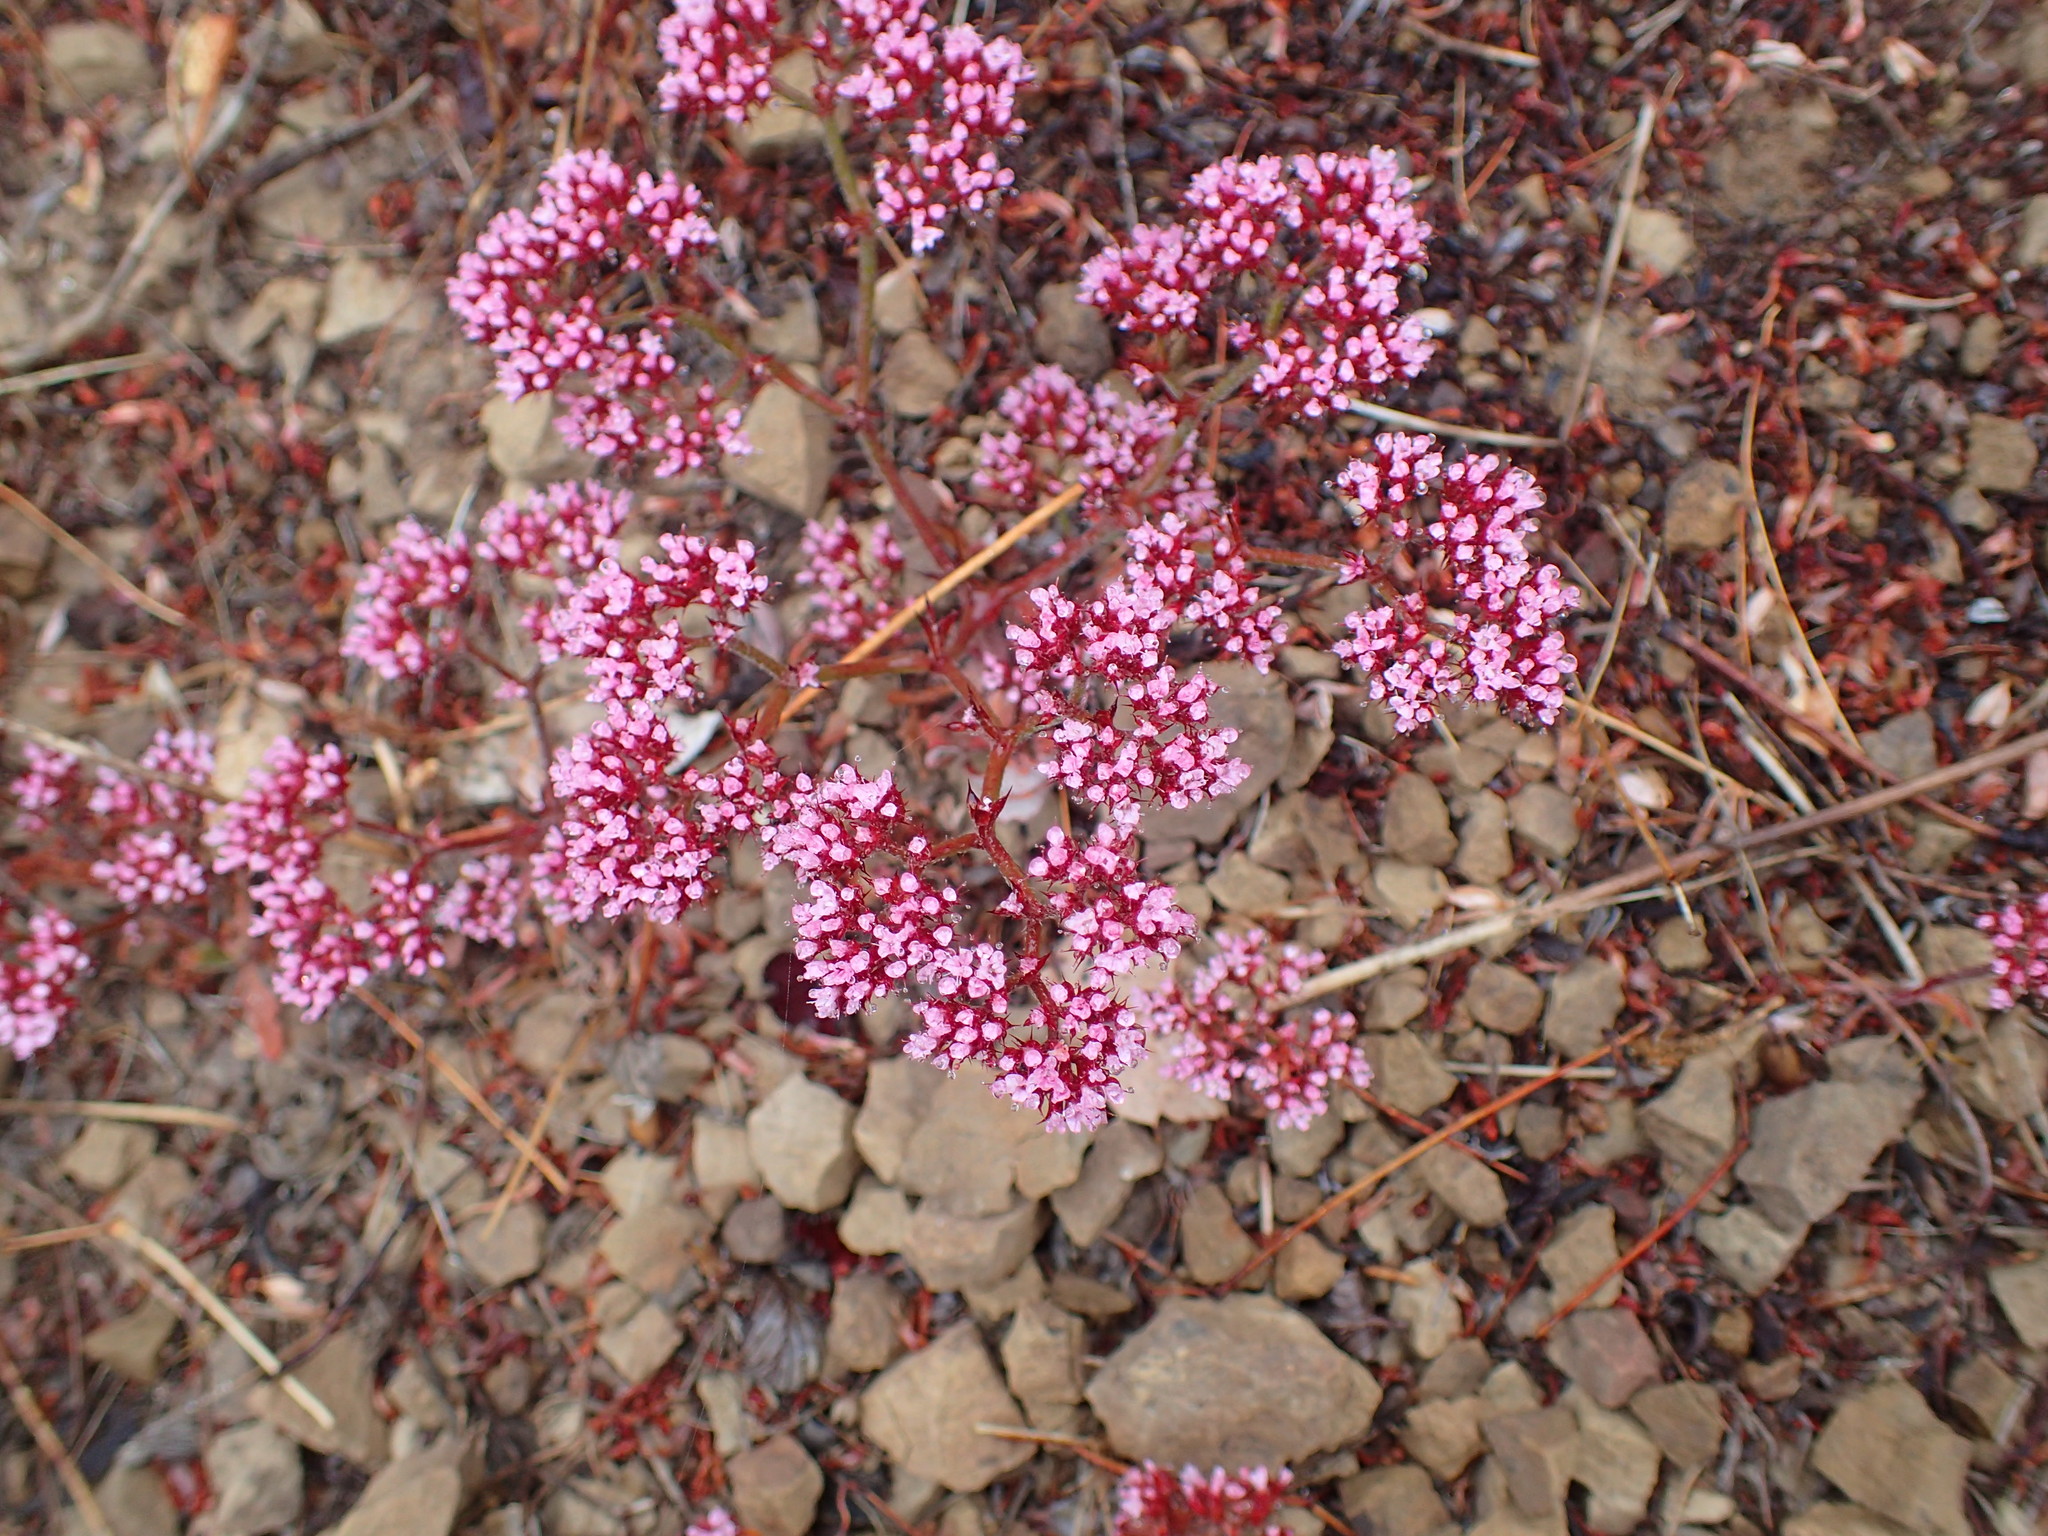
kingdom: Plantae
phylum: Tracheophyta
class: Magnoliopsida
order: Caryophyllales
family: Polygonaceae
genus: Chorizanthe
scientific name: Chorizanthe staticoides
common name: Turkish rugging
